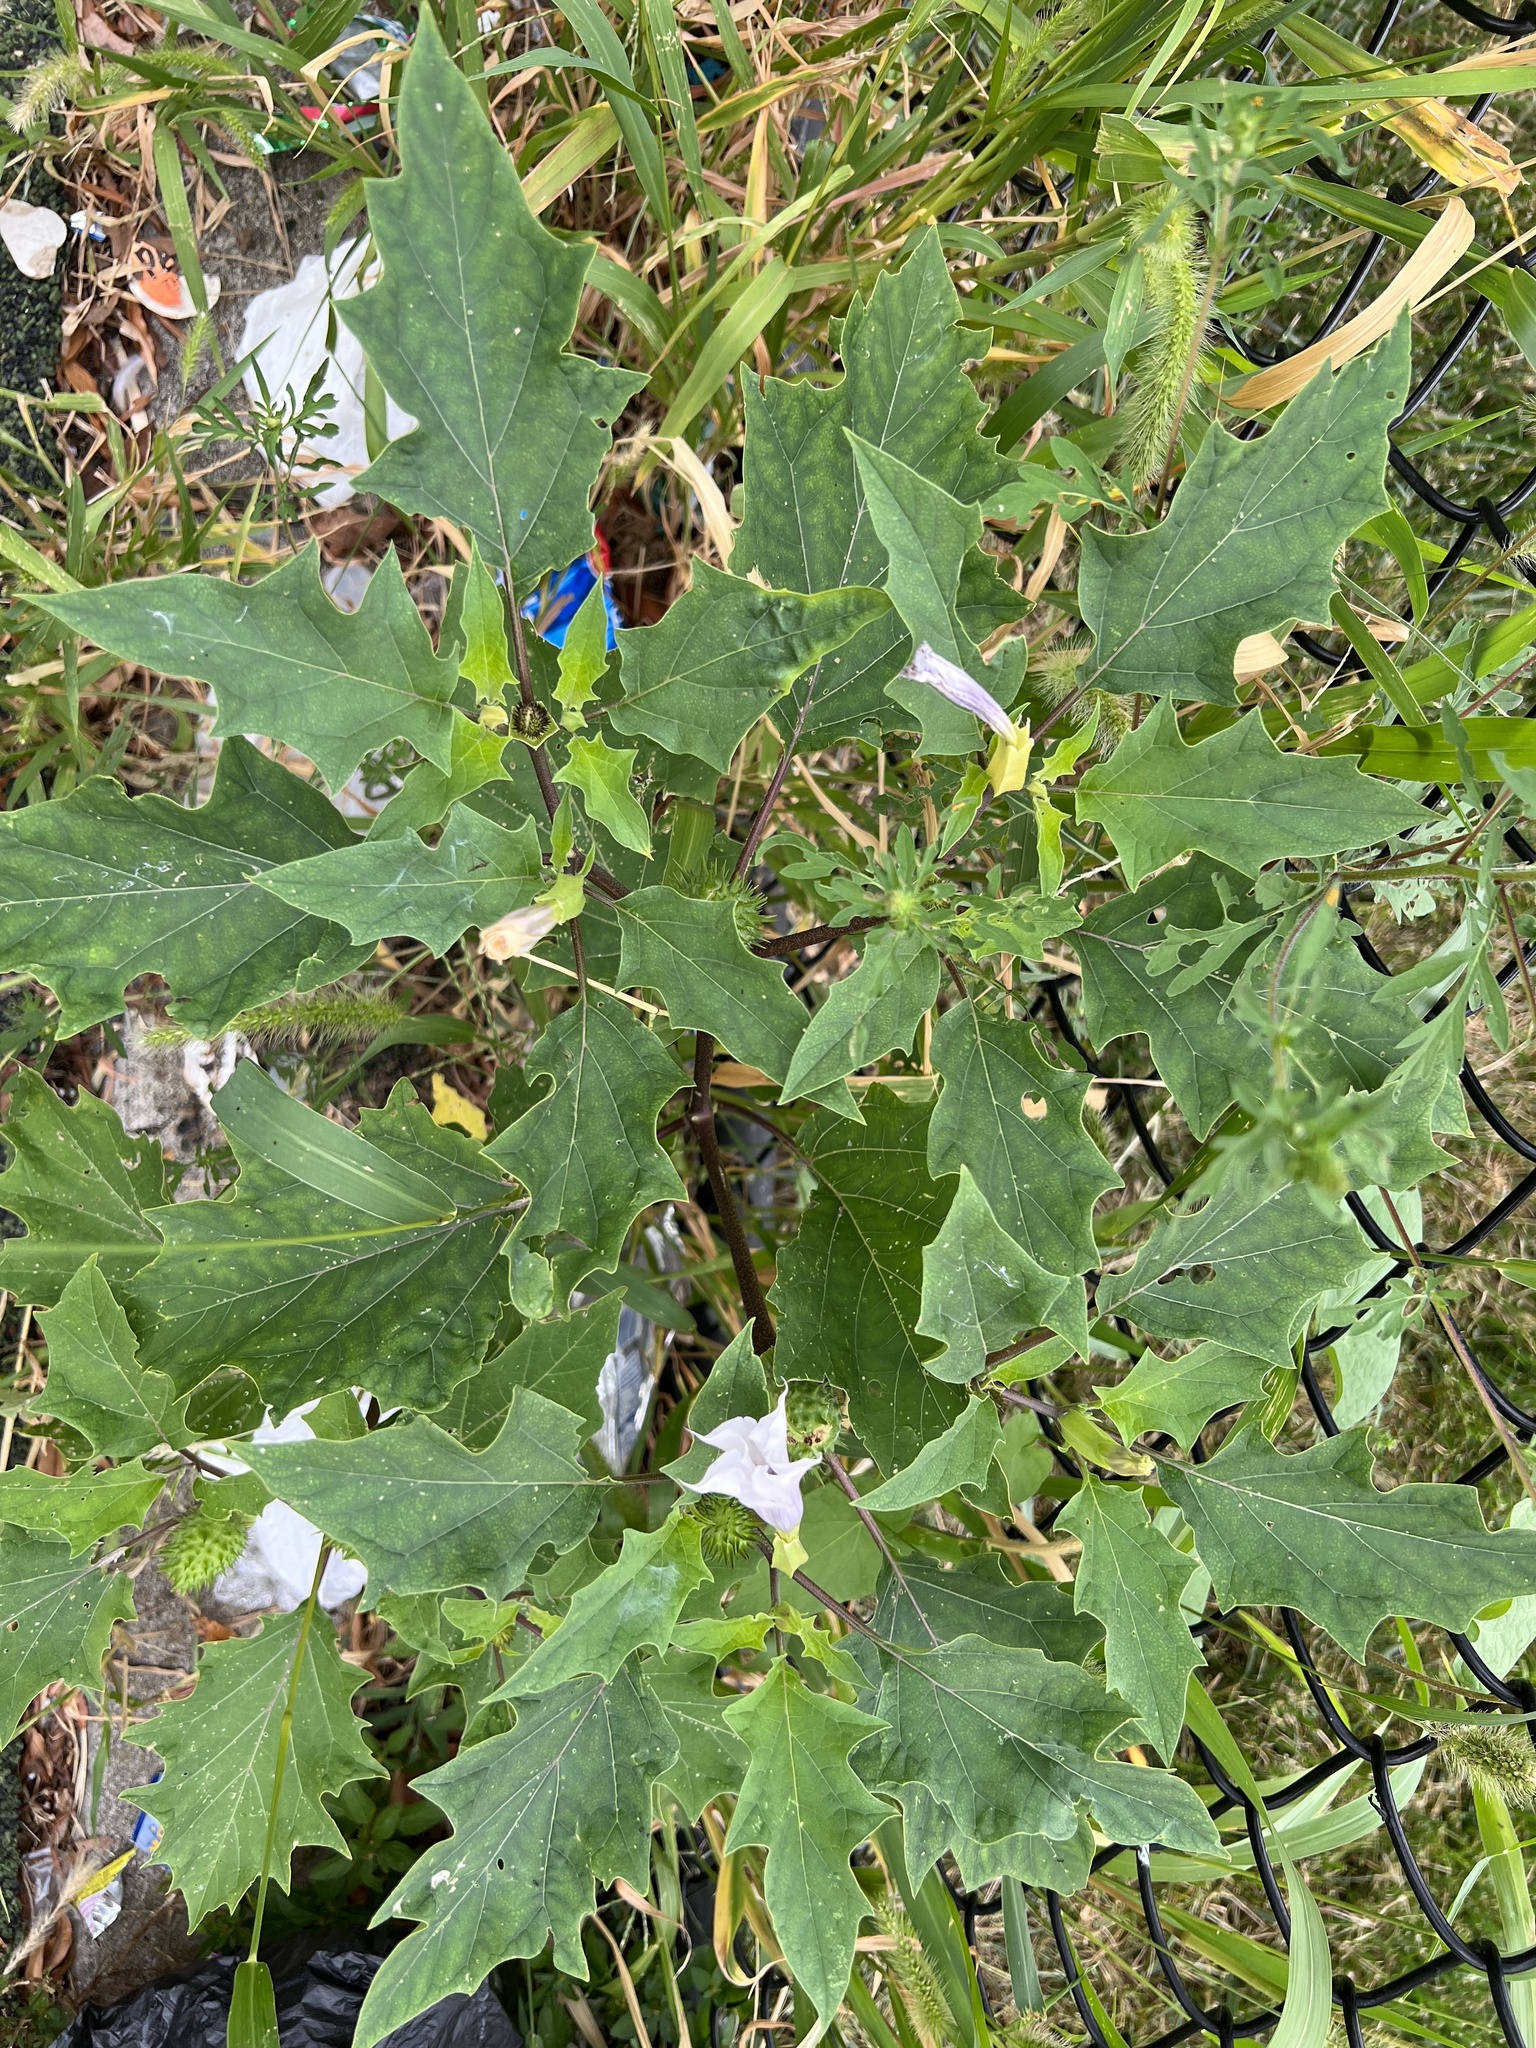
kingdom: Plantae
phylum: Tracheophyta
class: Magnoliopsida
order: Solanales
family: Solanaceae
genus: Datura
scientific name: Datura stramonium
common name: Thorn-apple
